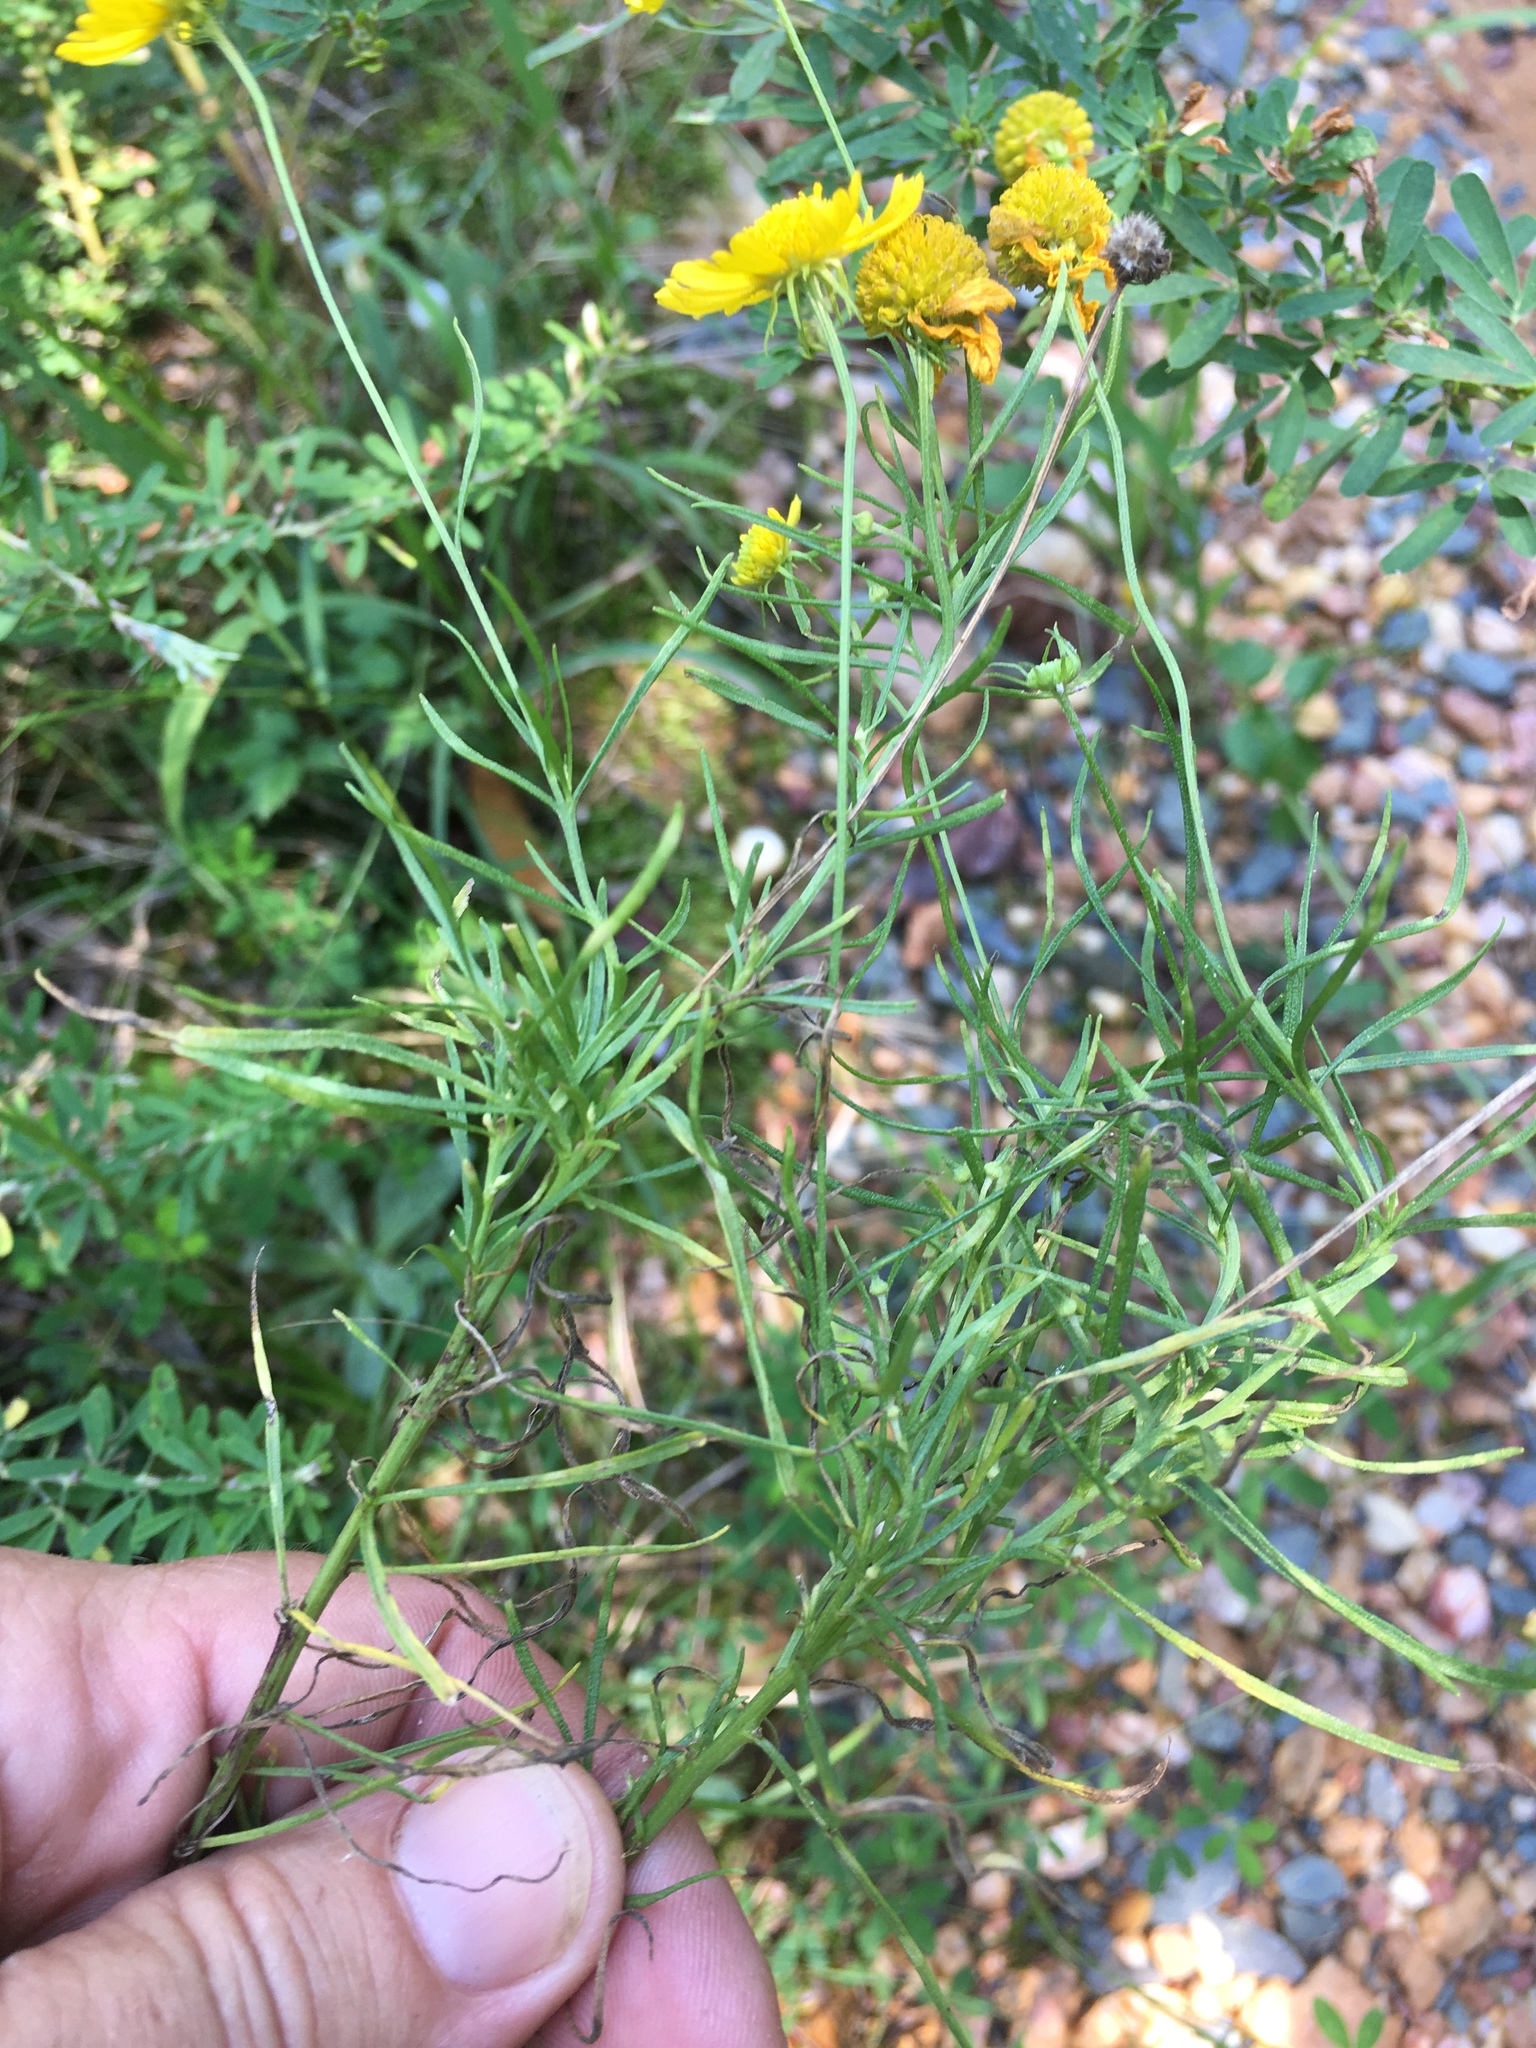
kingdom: Plantae
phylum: Tracheophyta
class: Magnoliopsida
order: Asterales
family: Asteraceae
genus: Helenium
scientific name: Helenium amarum
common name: Bitter sneezeweed
